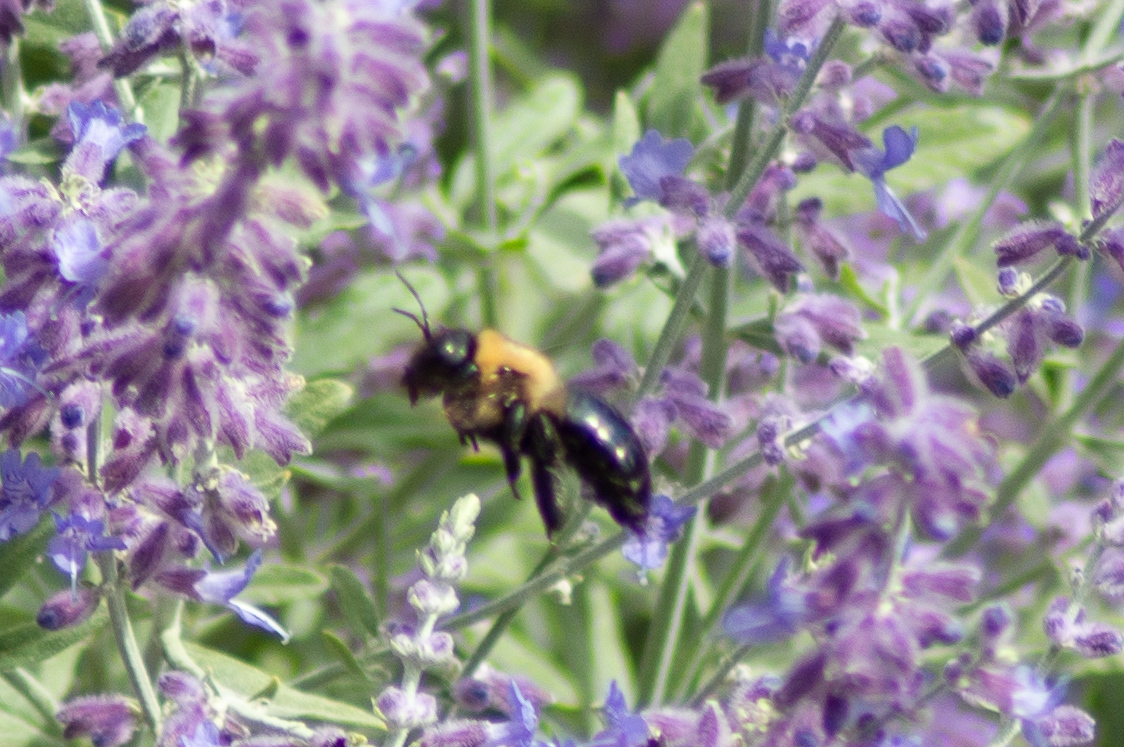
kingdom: Animalia
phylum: Arthropoda
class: Insecta
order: Hymenoptera
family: Apidae
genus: Xylocopa
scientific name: Xylocopa virginica
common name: Carpenter bee
